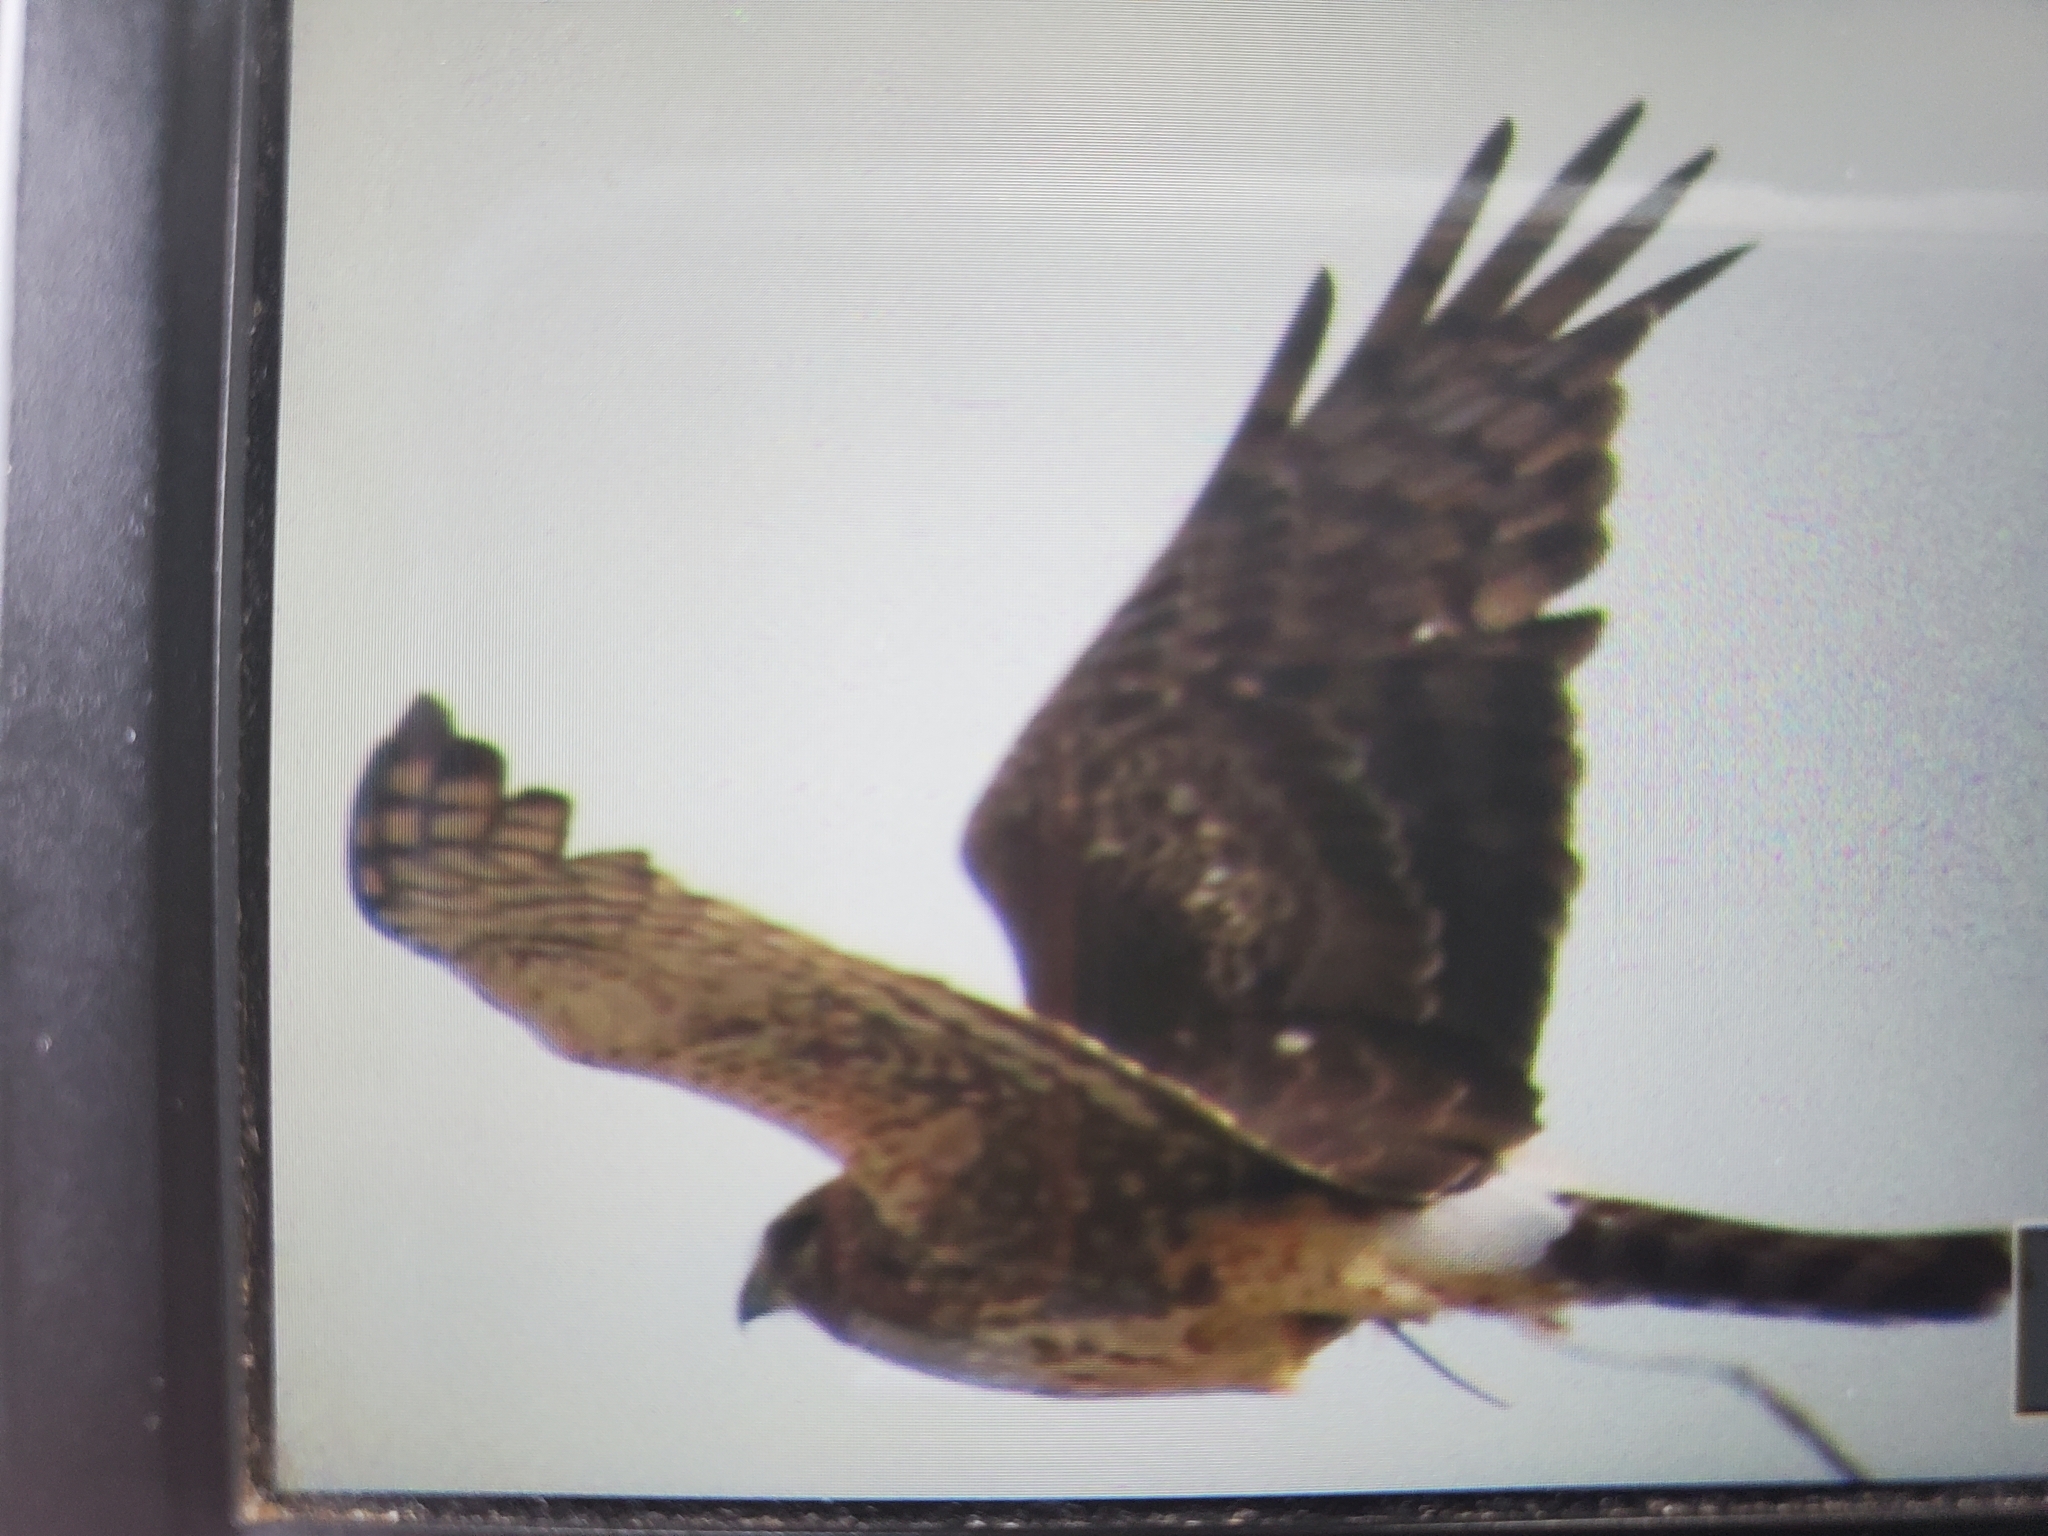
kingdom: Animalia
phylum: Chordata
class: Aves
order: Accipitriformes
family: Accipitridae
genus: Circus
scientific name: Circus cyaneus
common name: Hen harrier
